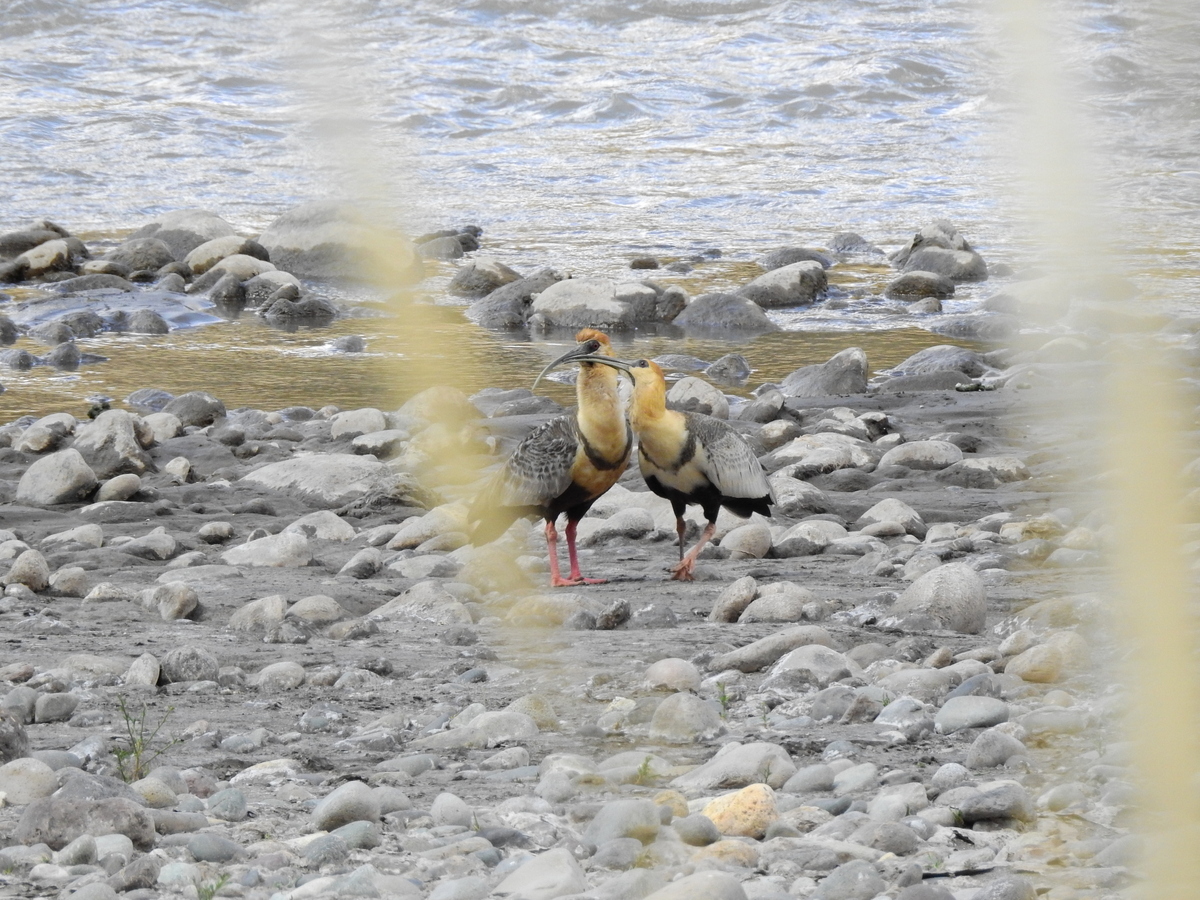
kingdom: Animalia
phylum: Chordata
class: Aves
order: Pelecaniformes
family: Threskiornithidae
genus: Theristicus
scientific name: Theristicus melanopis
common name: Black-faced ibis
